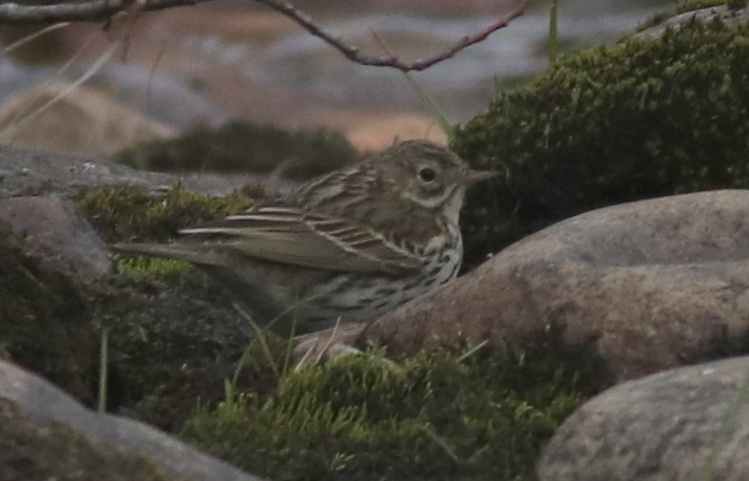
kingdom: Animalia
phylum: Chordata
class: Aves
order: Passeriformes
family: Motacillidae
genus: Anthus
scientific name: Anthus pratensis
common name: Meadow pipit
